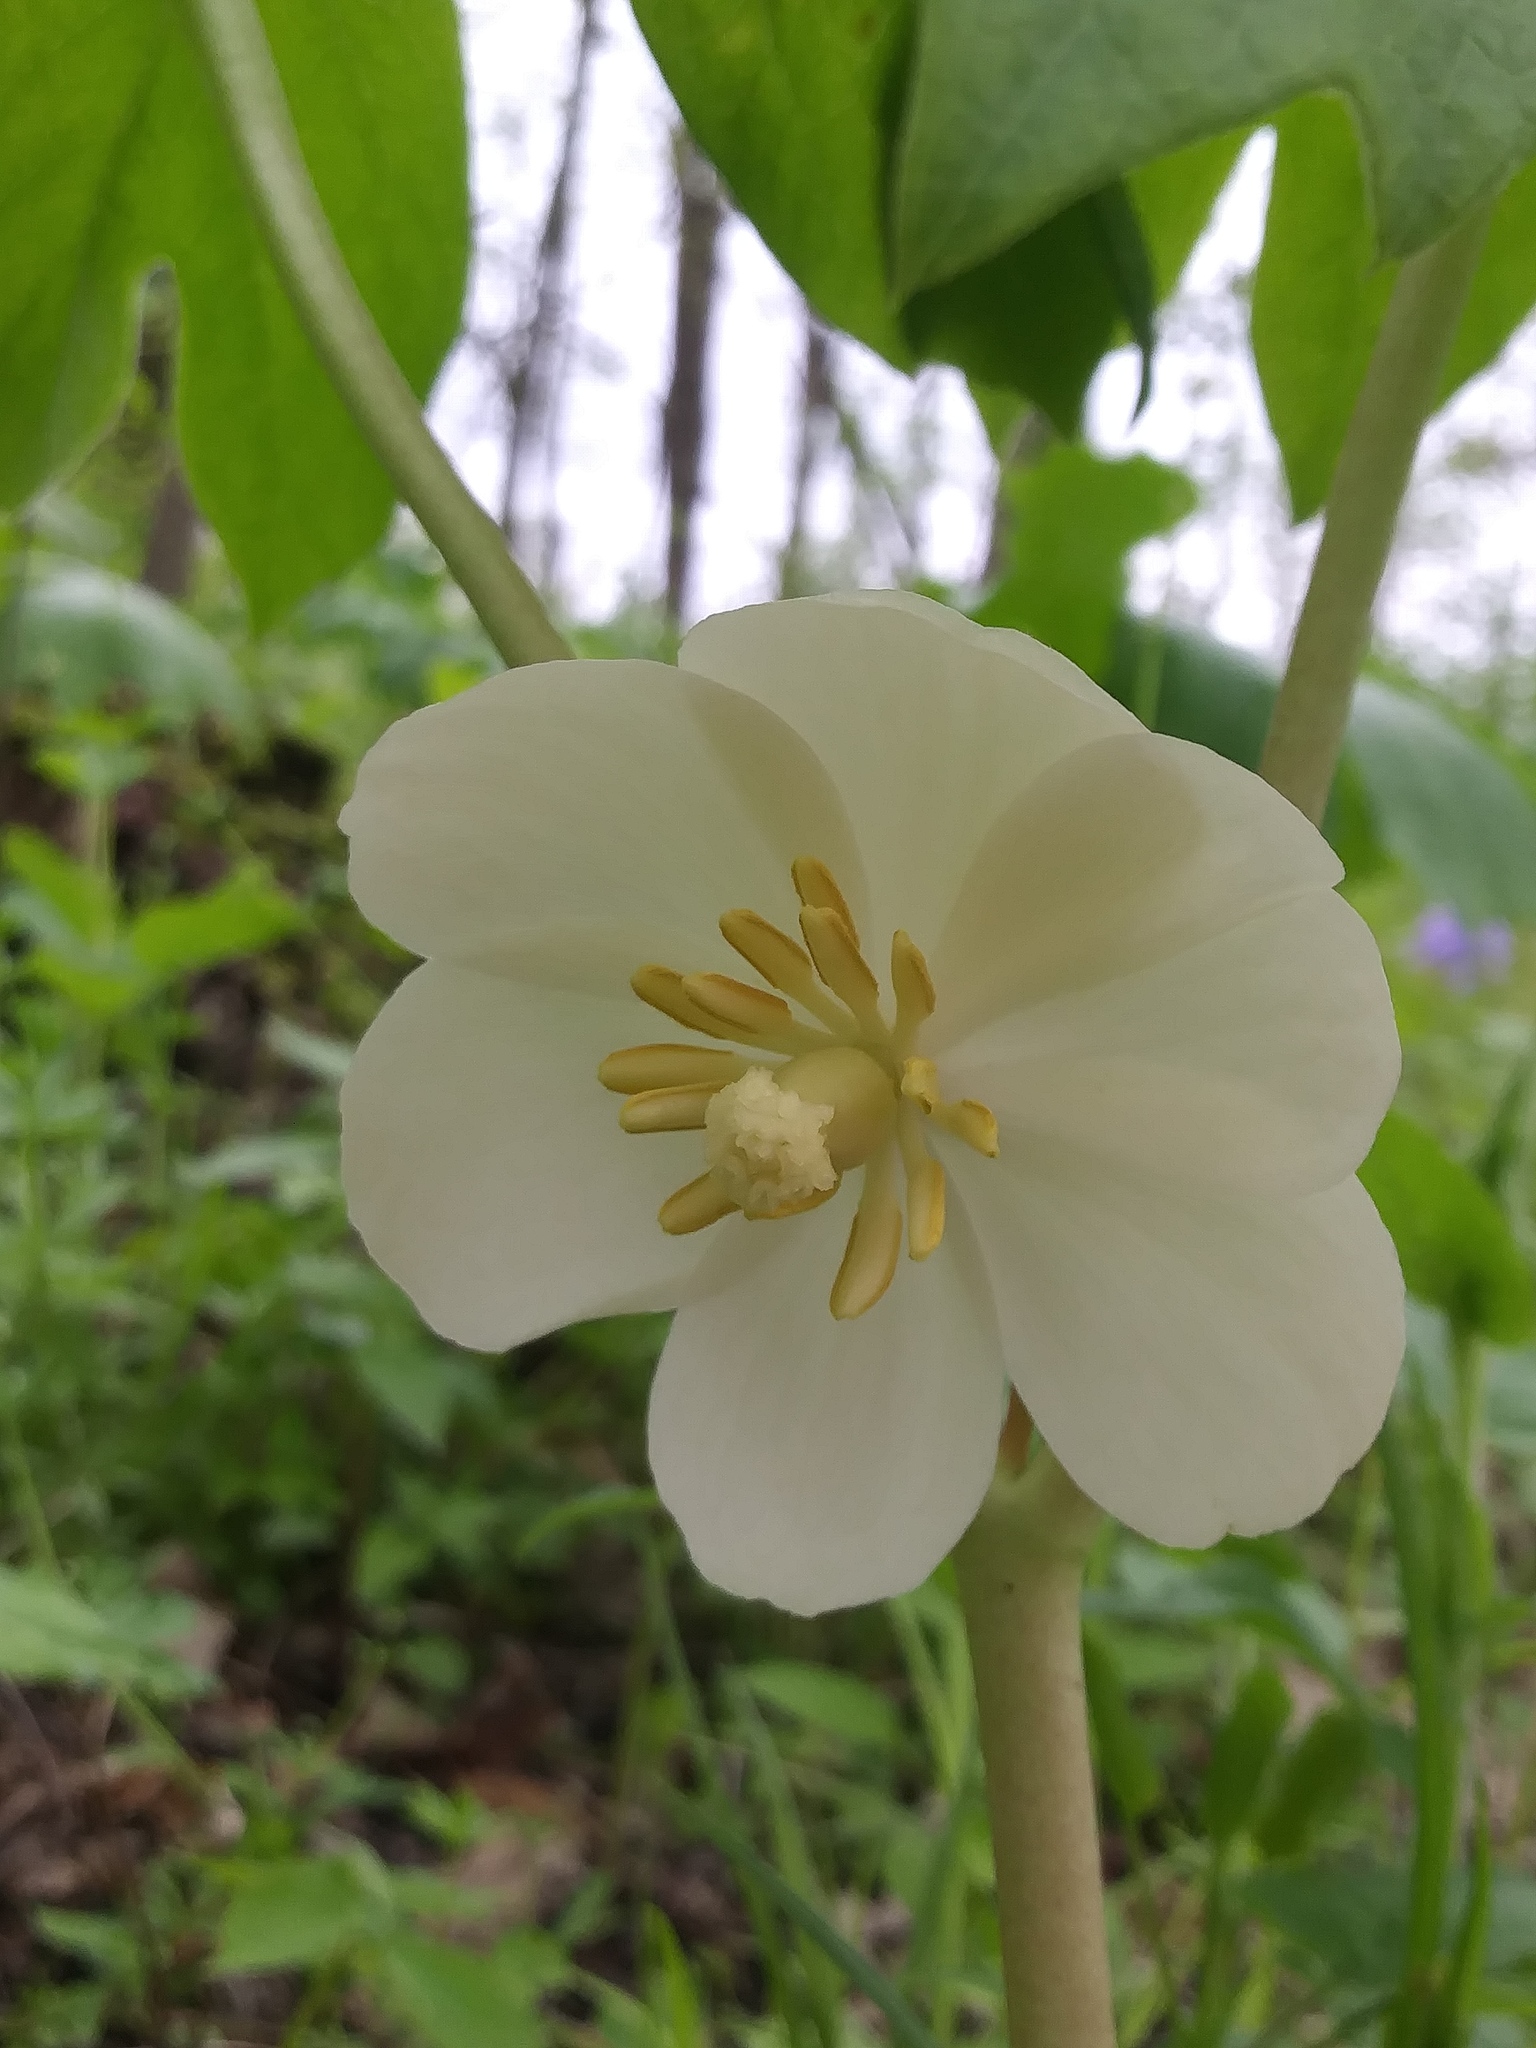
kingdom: Plantae
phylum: Tracheophyta
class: Magnoliopsida
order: Ranunculales
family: Berberidaceae
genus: Podophyllum
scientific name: Podophyllum peltatum
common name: Wild mandrake
